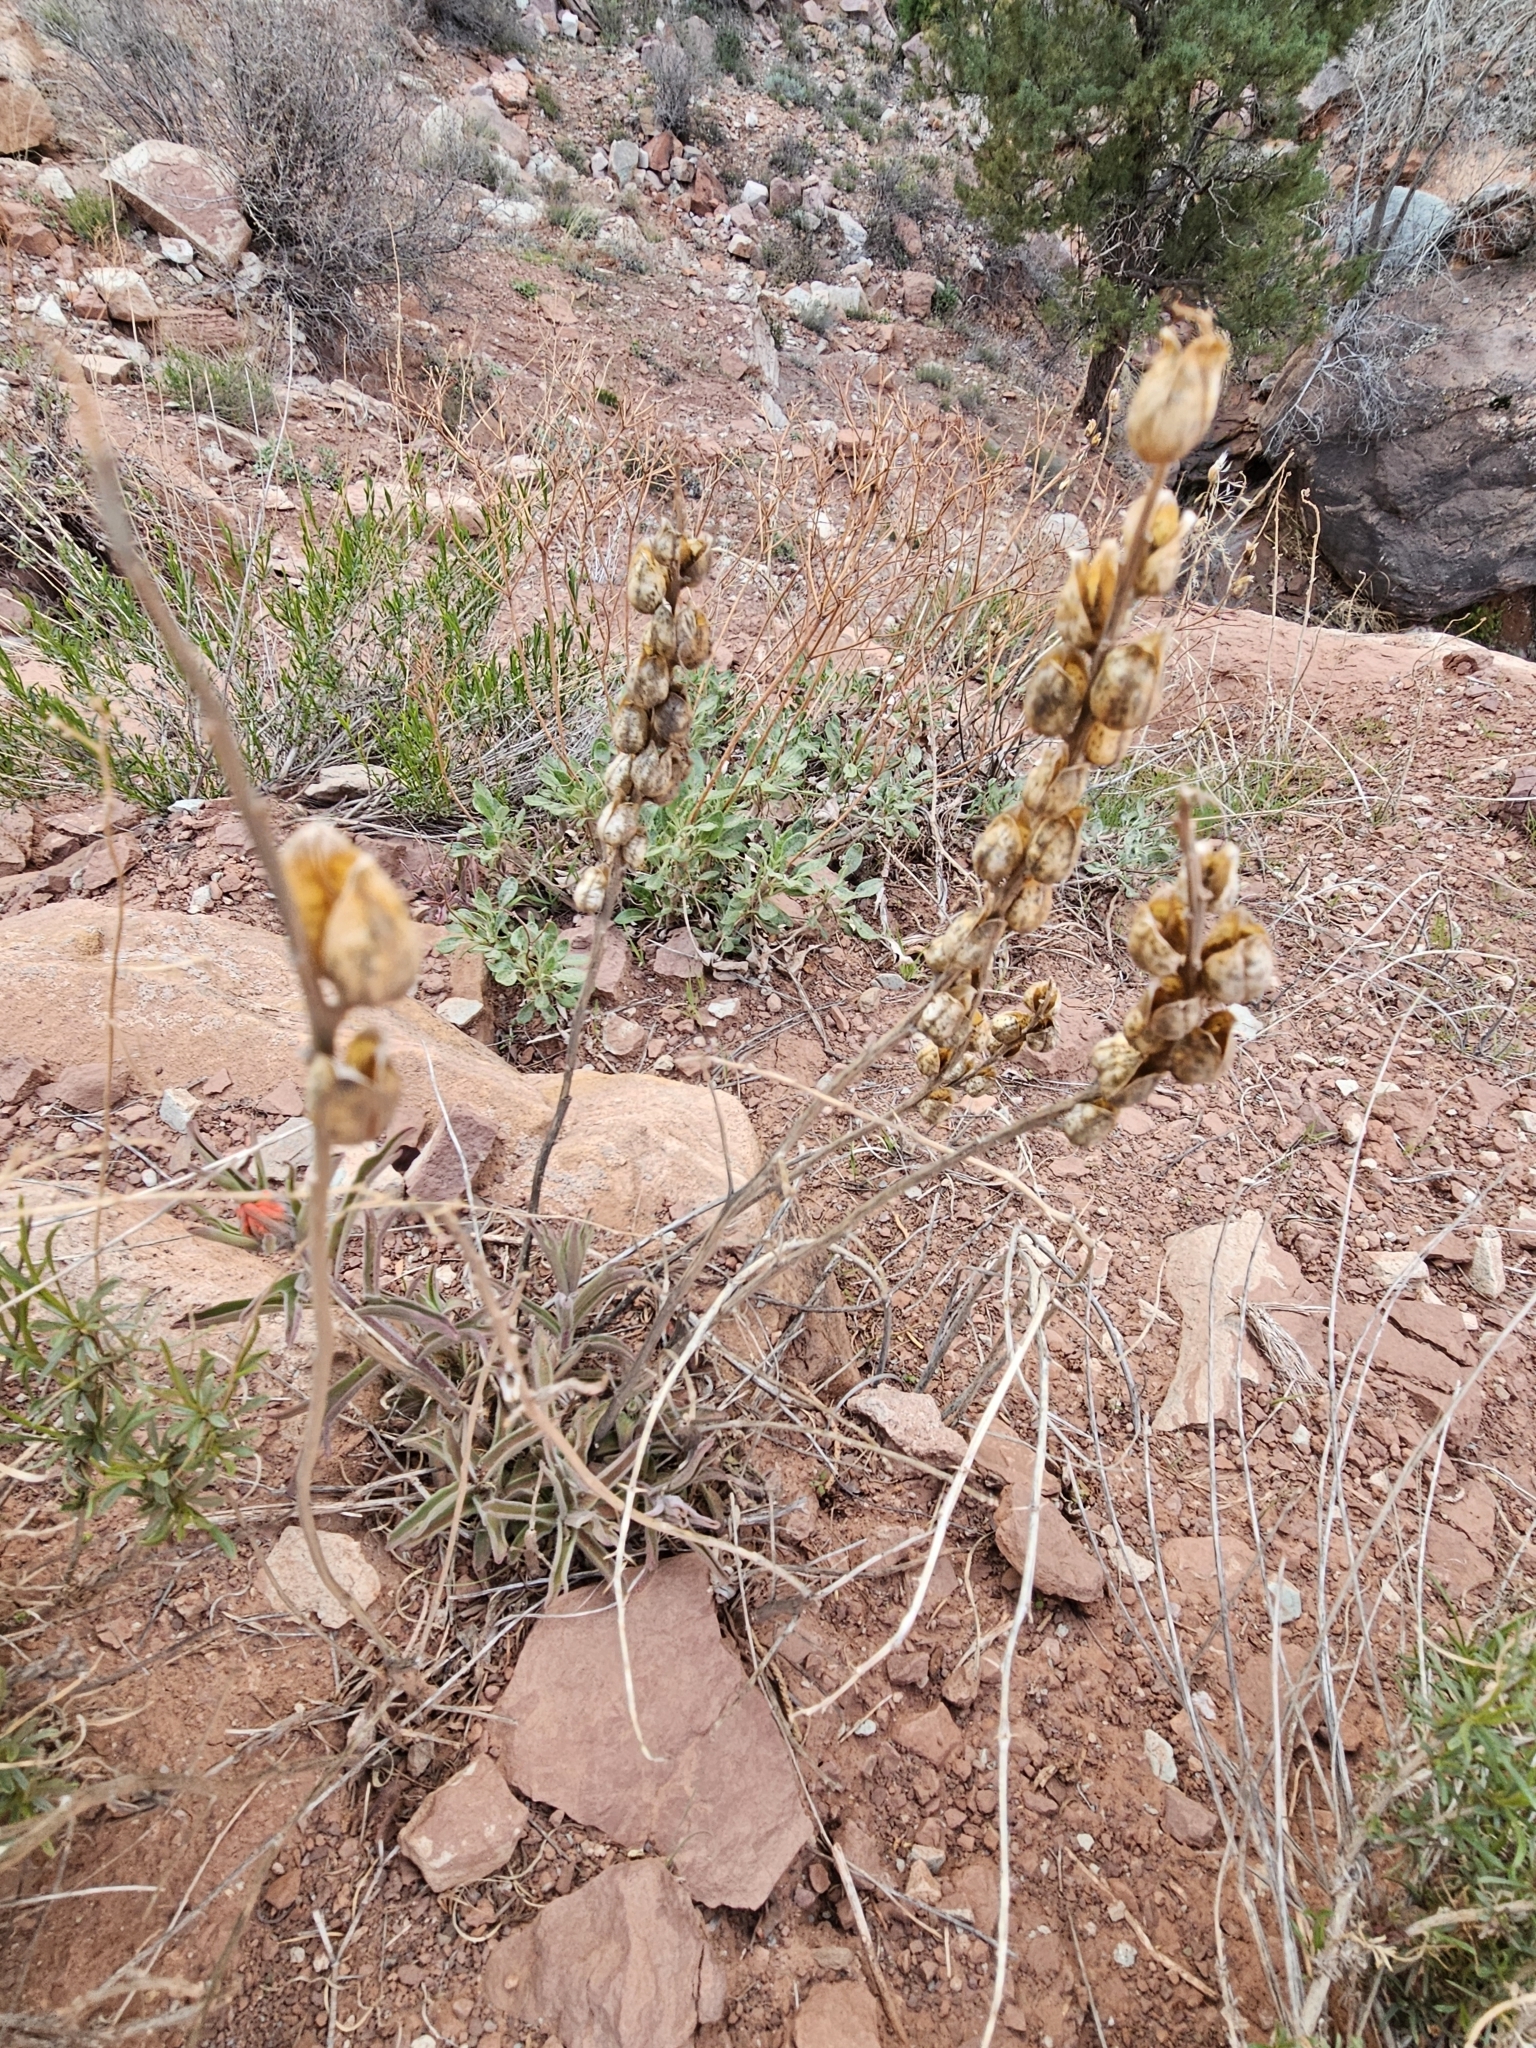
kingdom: Plantae
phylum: Tracheophyta
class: Magnoliopsida
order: Lamiales
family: Orobanchaceae
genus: Castilleja
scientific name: Castilleja chromosa
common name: Desert paintbrush
